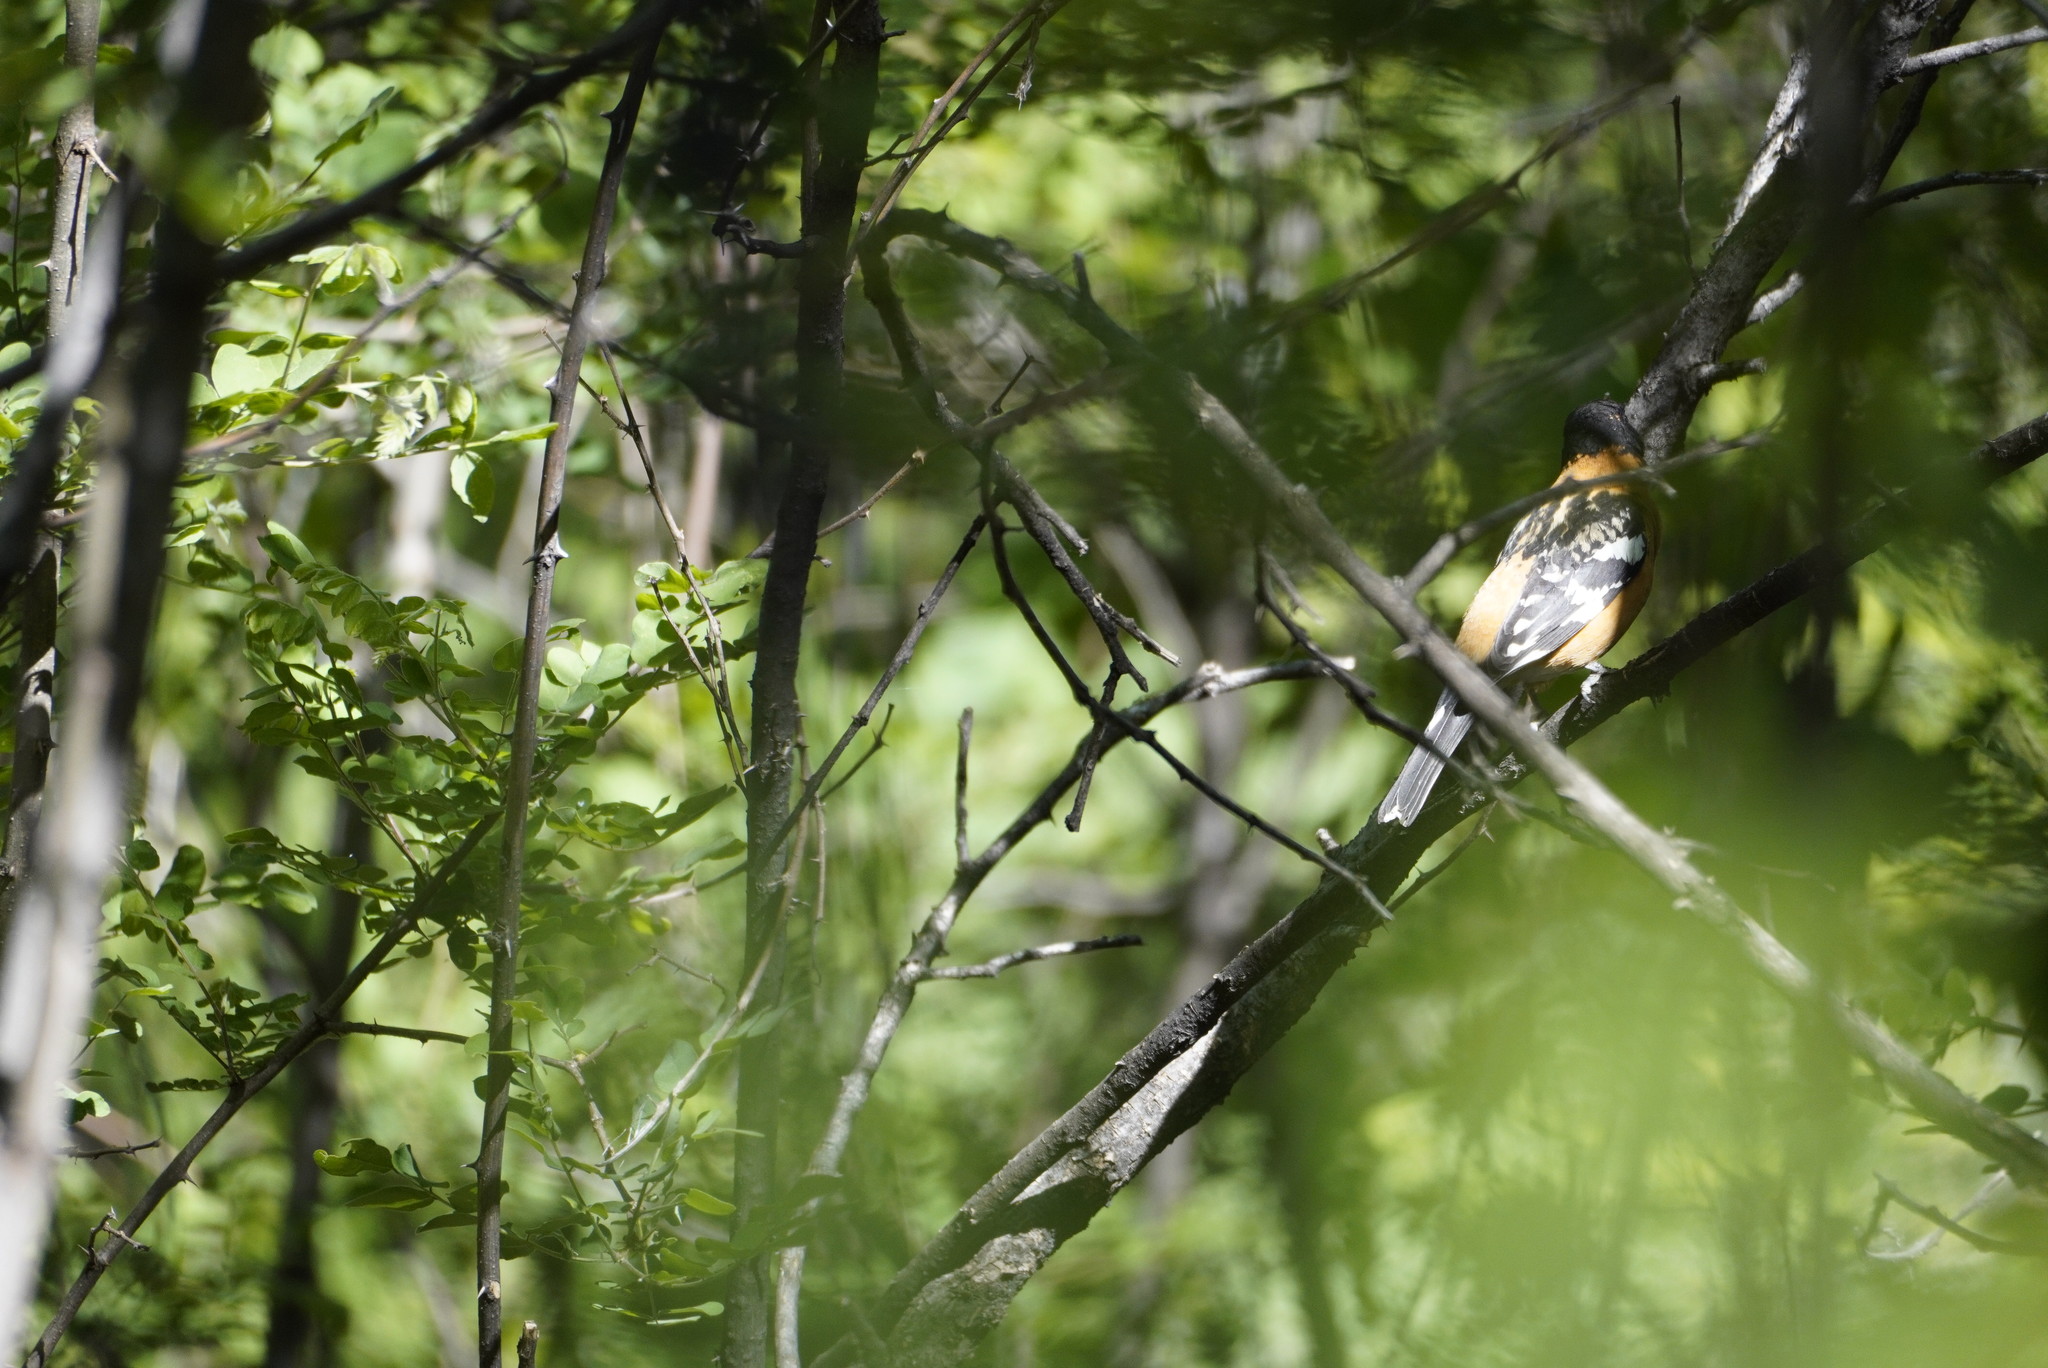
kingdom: Animalia
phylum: Chordata
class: Aves
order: Passeriformes
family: Cardinalidae
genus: Pheucticus
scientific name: Pheucticus melanocephalus
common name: Black-headed grosbeak
